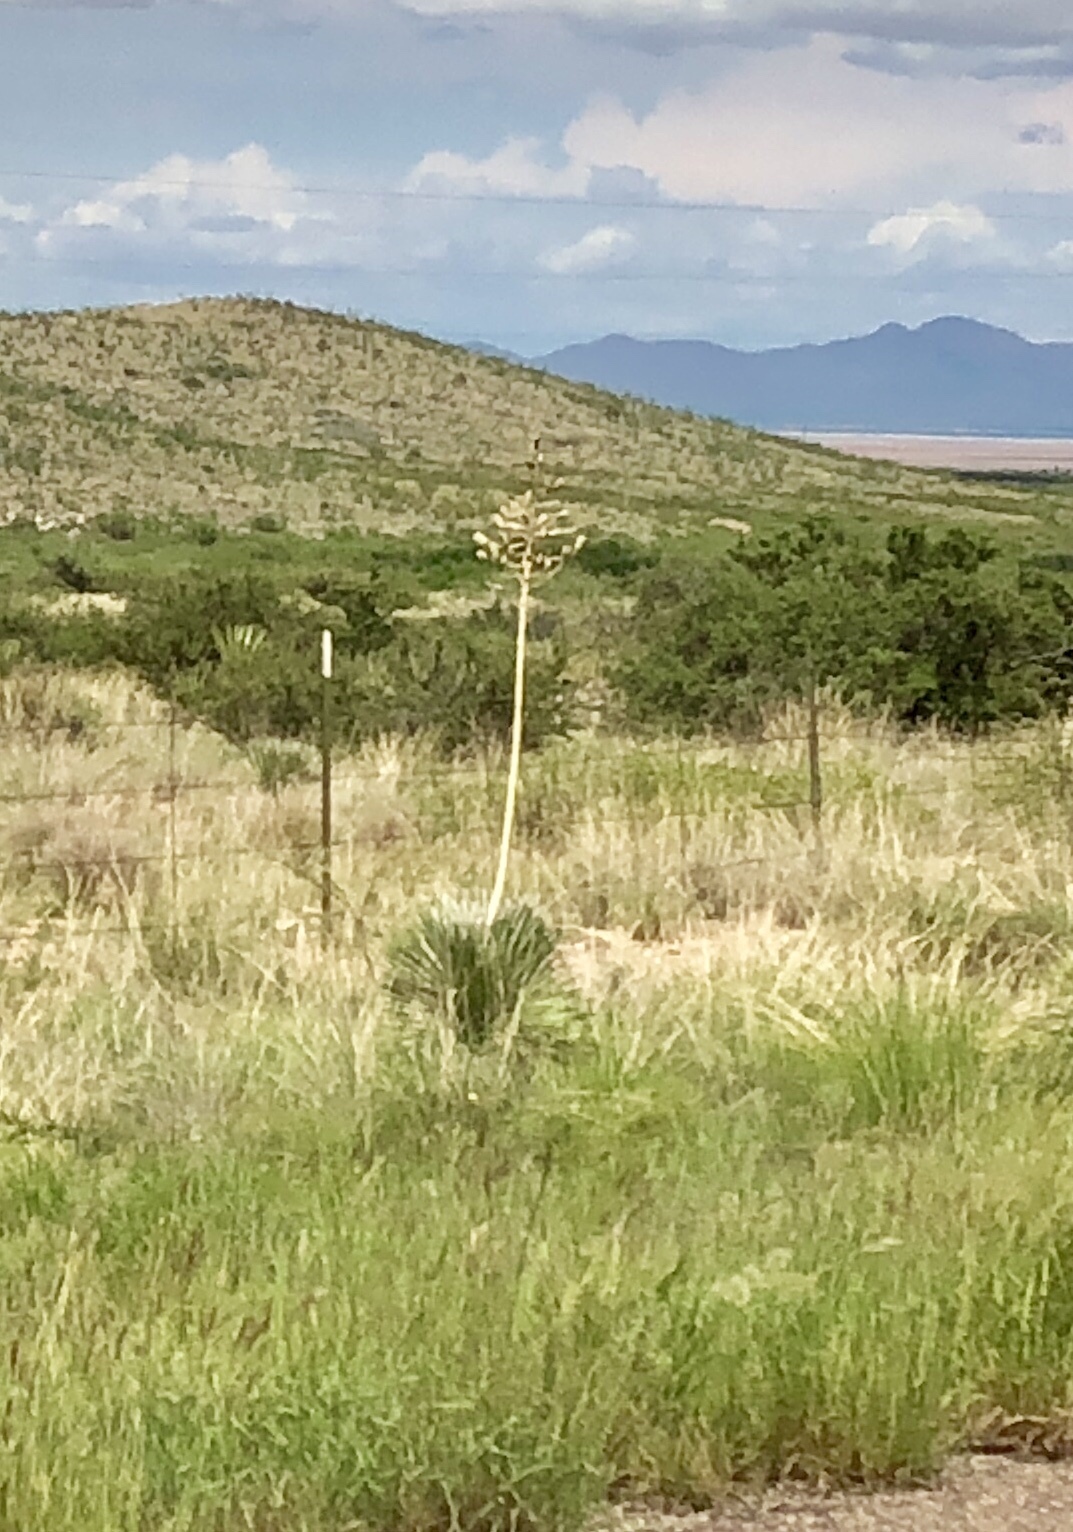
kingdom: Plantae
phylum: Tracheophyta
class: Liliopsida
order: Asparagales
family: Asparagaceae
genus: Yucca
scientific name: Yucca elata
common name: Palmella
